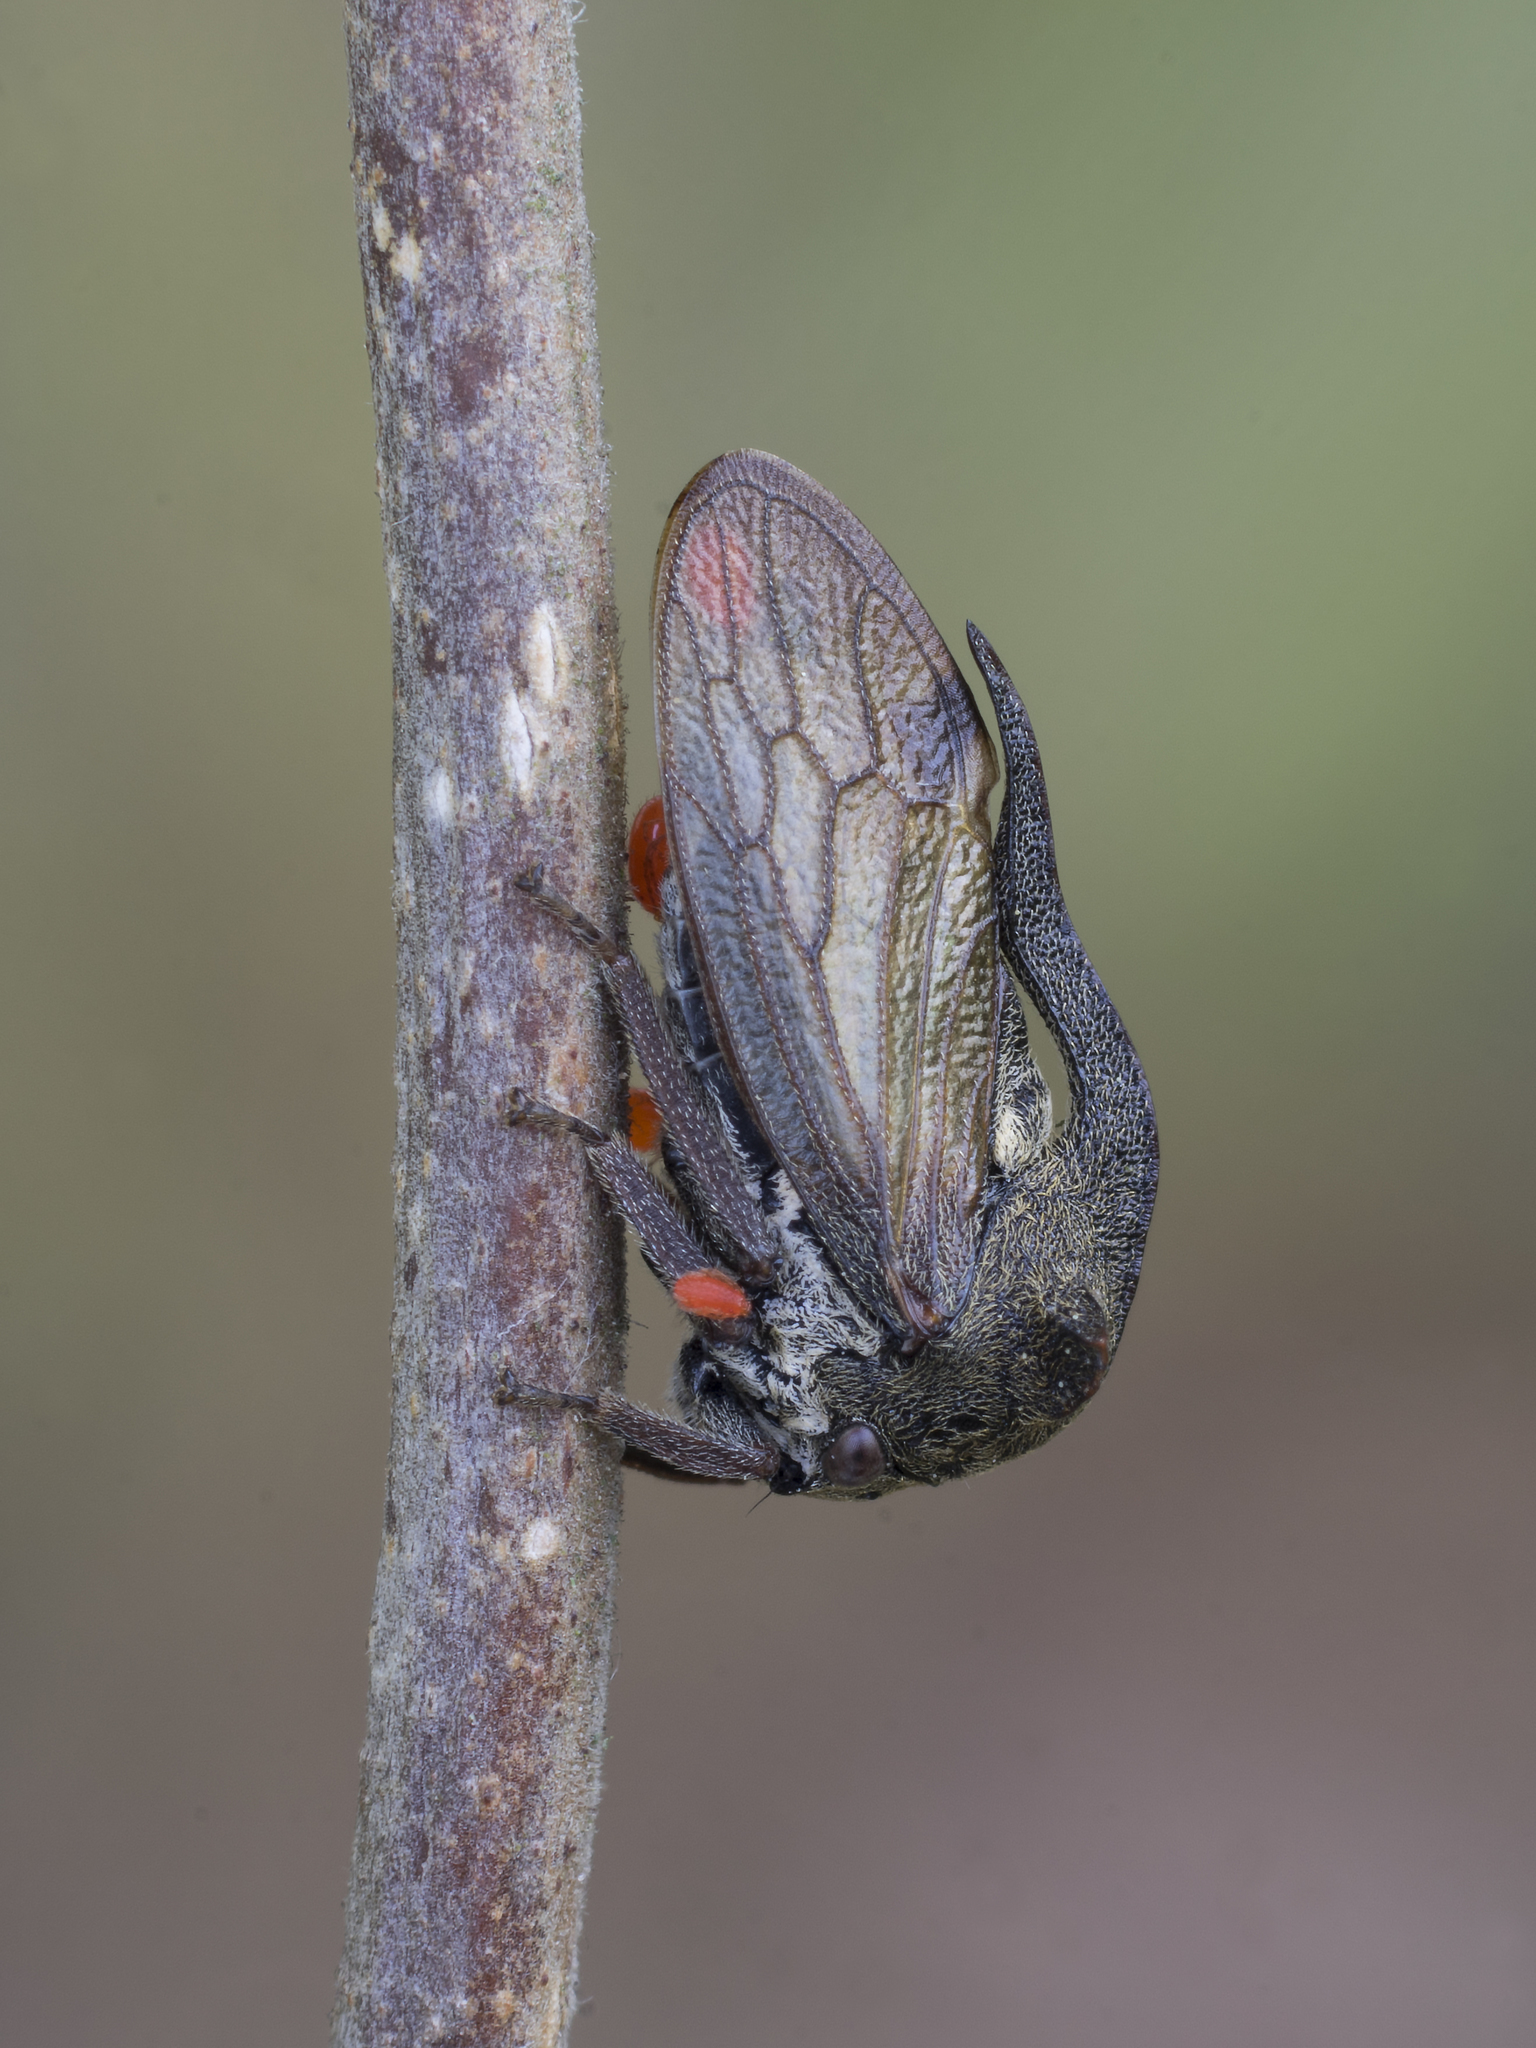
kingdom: Animalia
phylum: Arthropoda
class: Insecta
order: Hemiptera
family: Membracidae
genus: Centrotus
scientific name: Centrotus cornuta
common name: Treehopper
